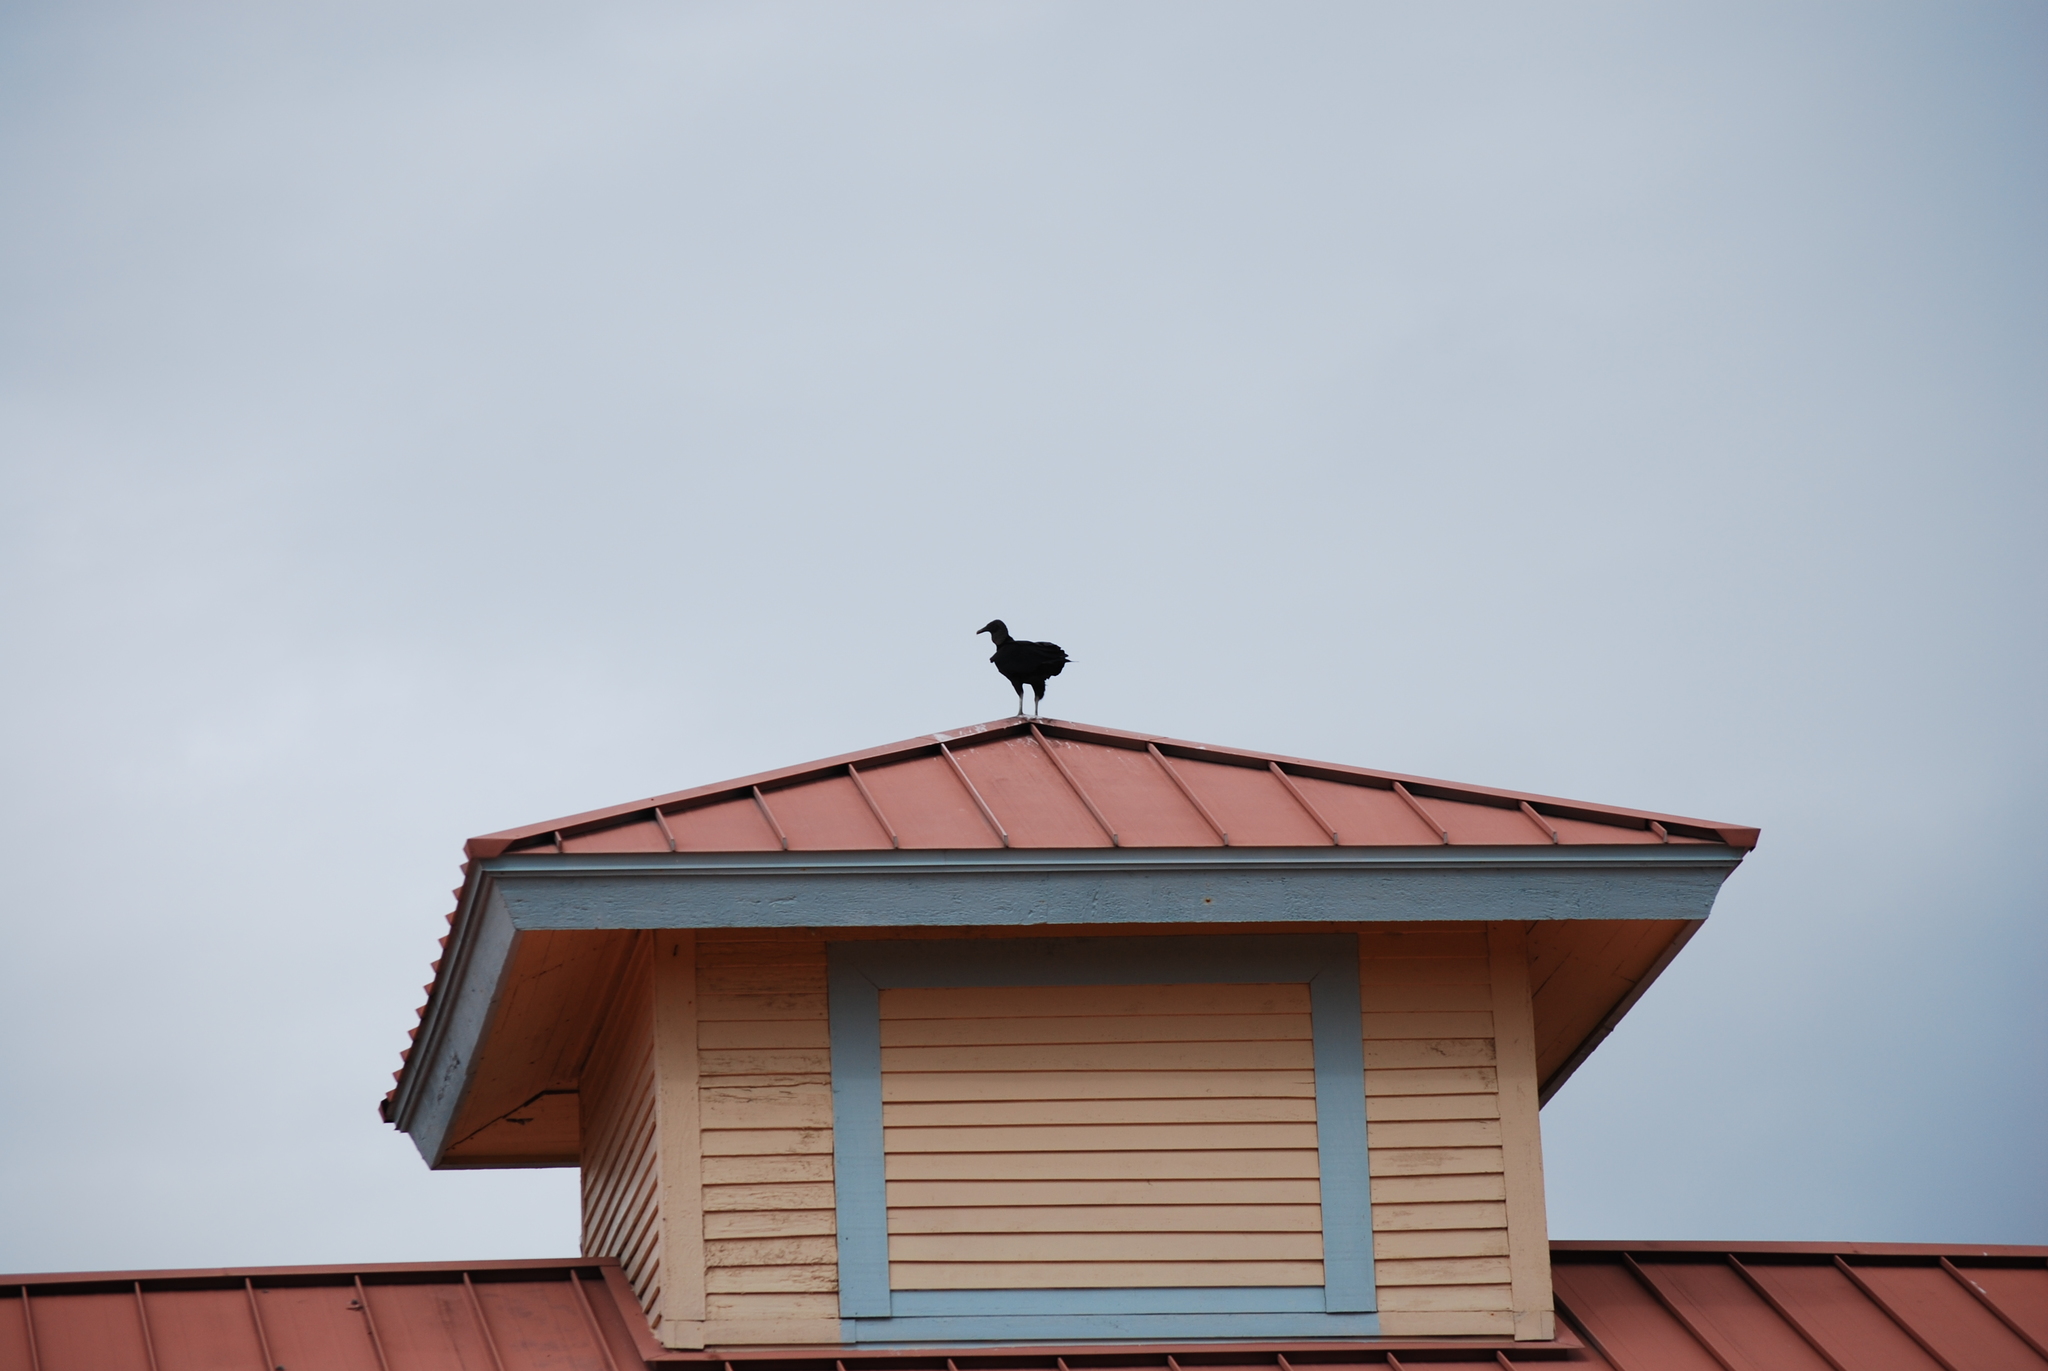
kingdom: Animalia
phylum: Chordata
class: Aves
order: Accipitriformes
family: Cathartidae
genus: Coragyps
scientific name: Coragyps atratus
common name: Black vulture
